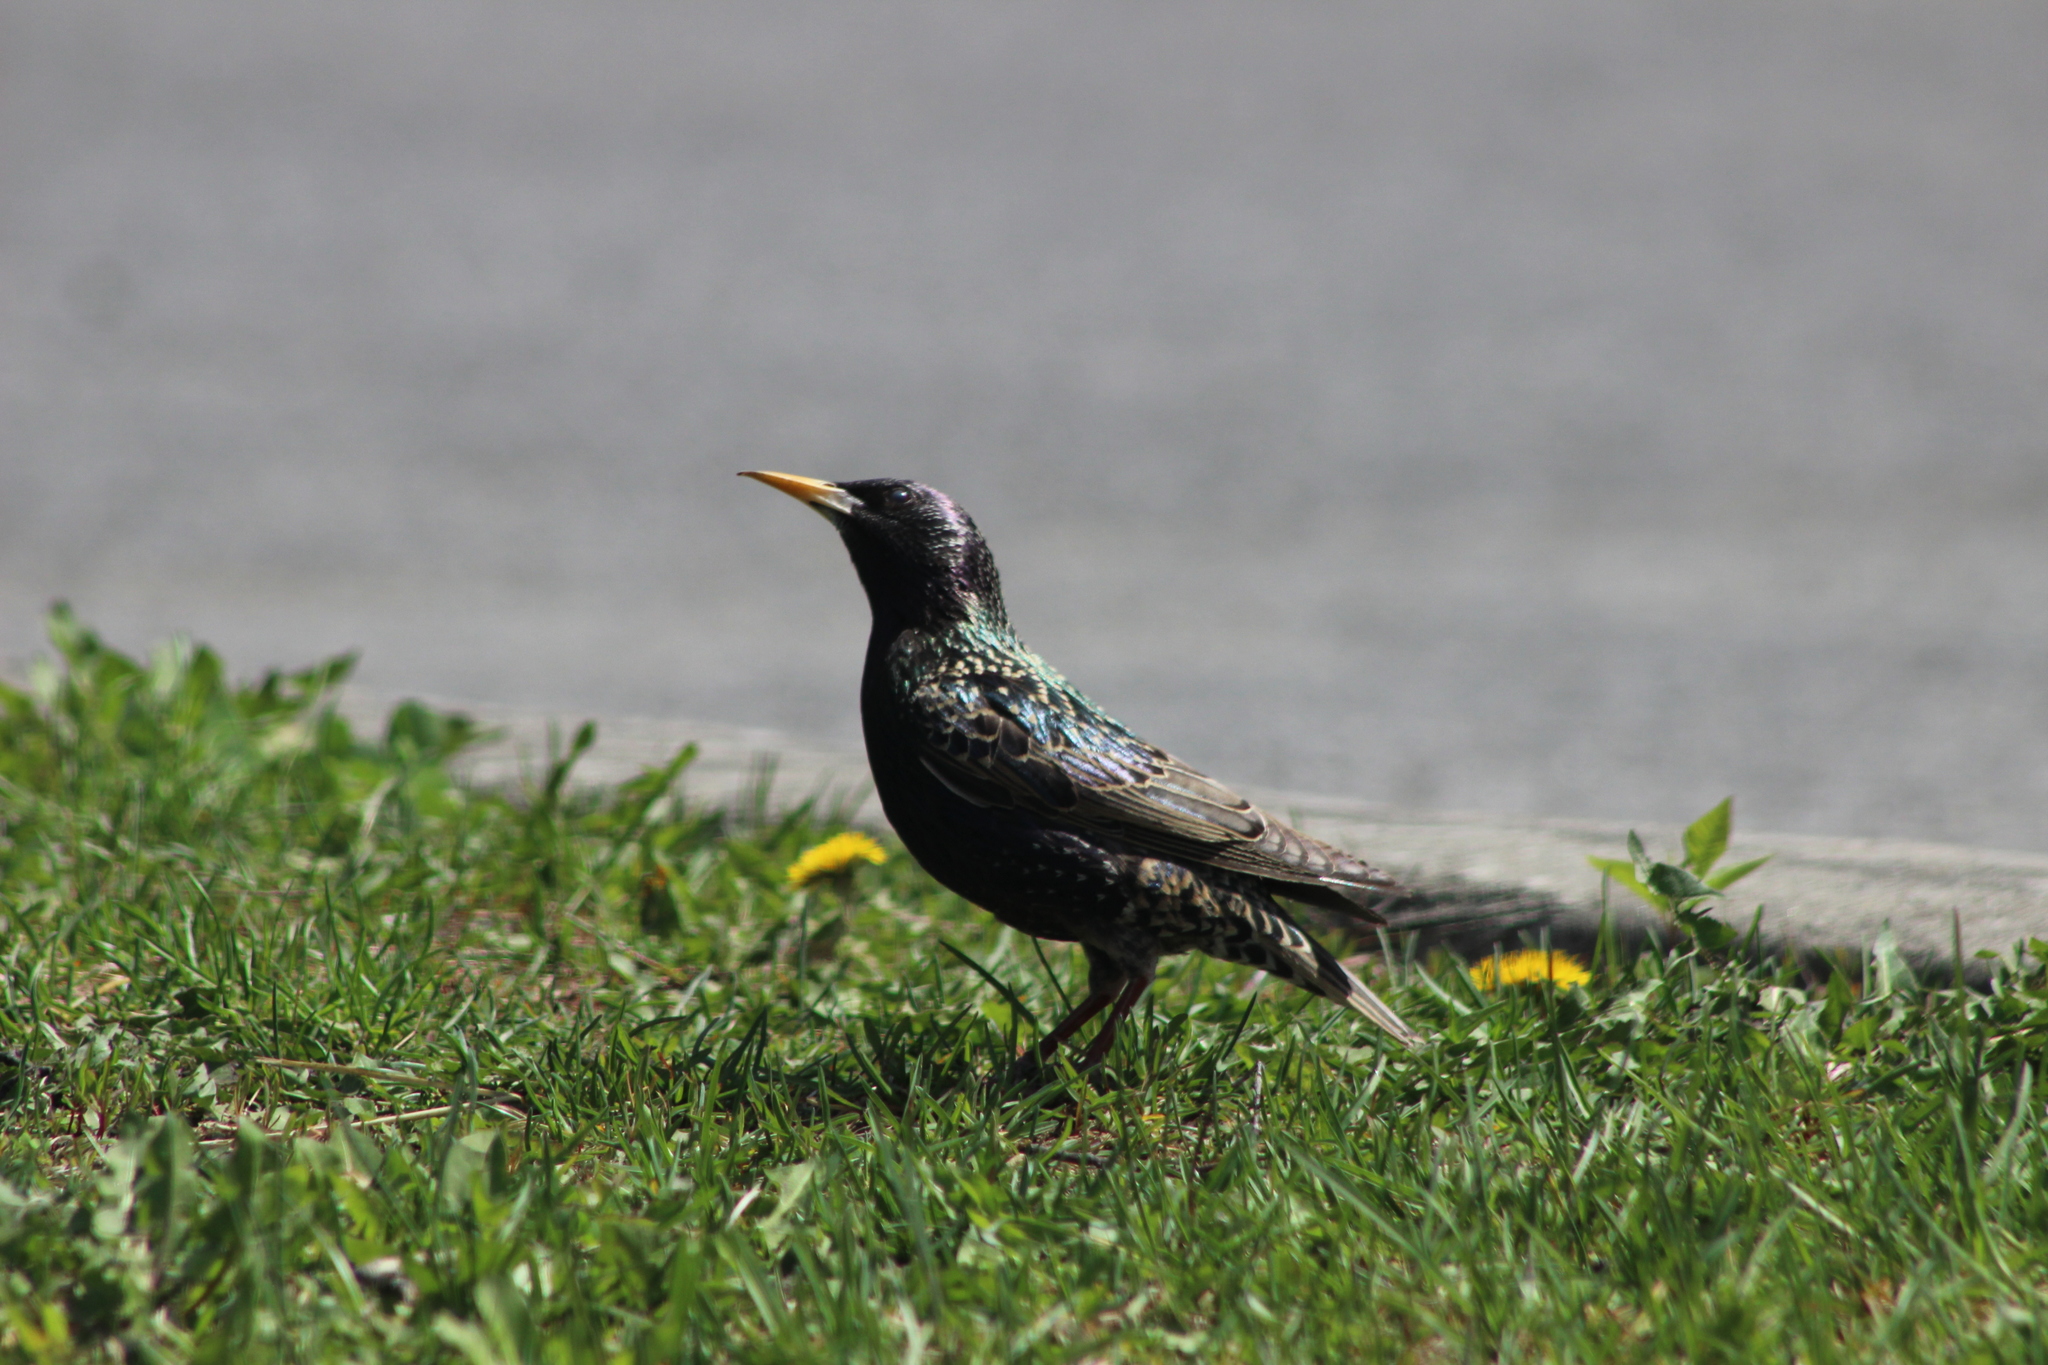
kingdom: Animalia
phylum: Chordata
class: Aves
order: Passeriformes
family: Sturnidae
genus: Sturnus
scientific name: Sturnus vulgaris
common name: Common starling
